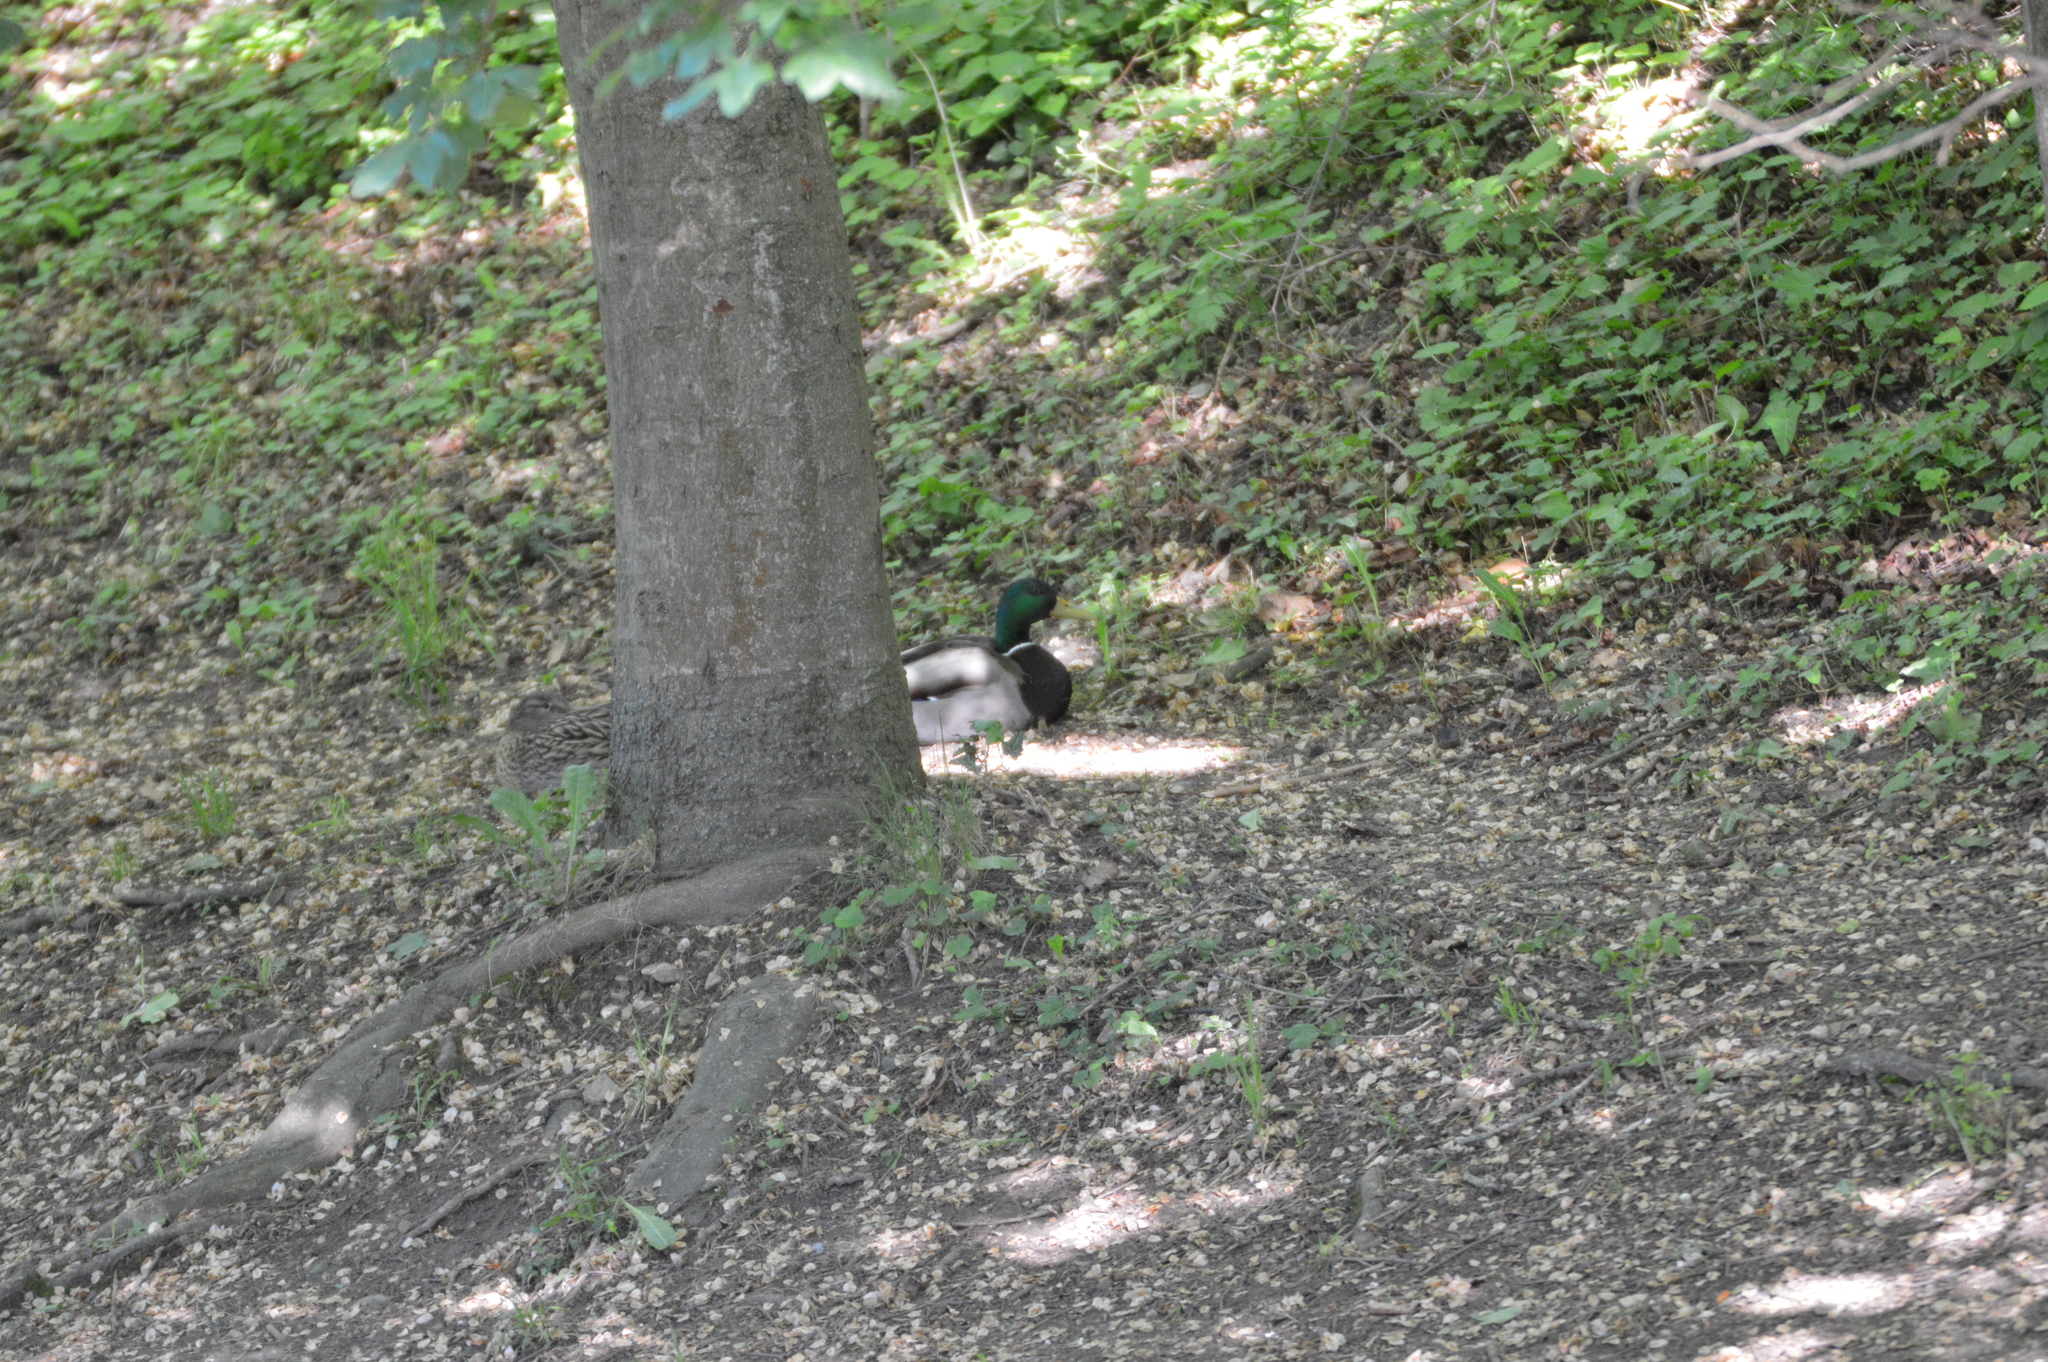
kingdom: Animalia
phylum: Chordata
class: Aves
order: Anseriformes
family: Anatidae
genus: Anas
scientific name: Anas platyrhynchos
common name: Mallard
